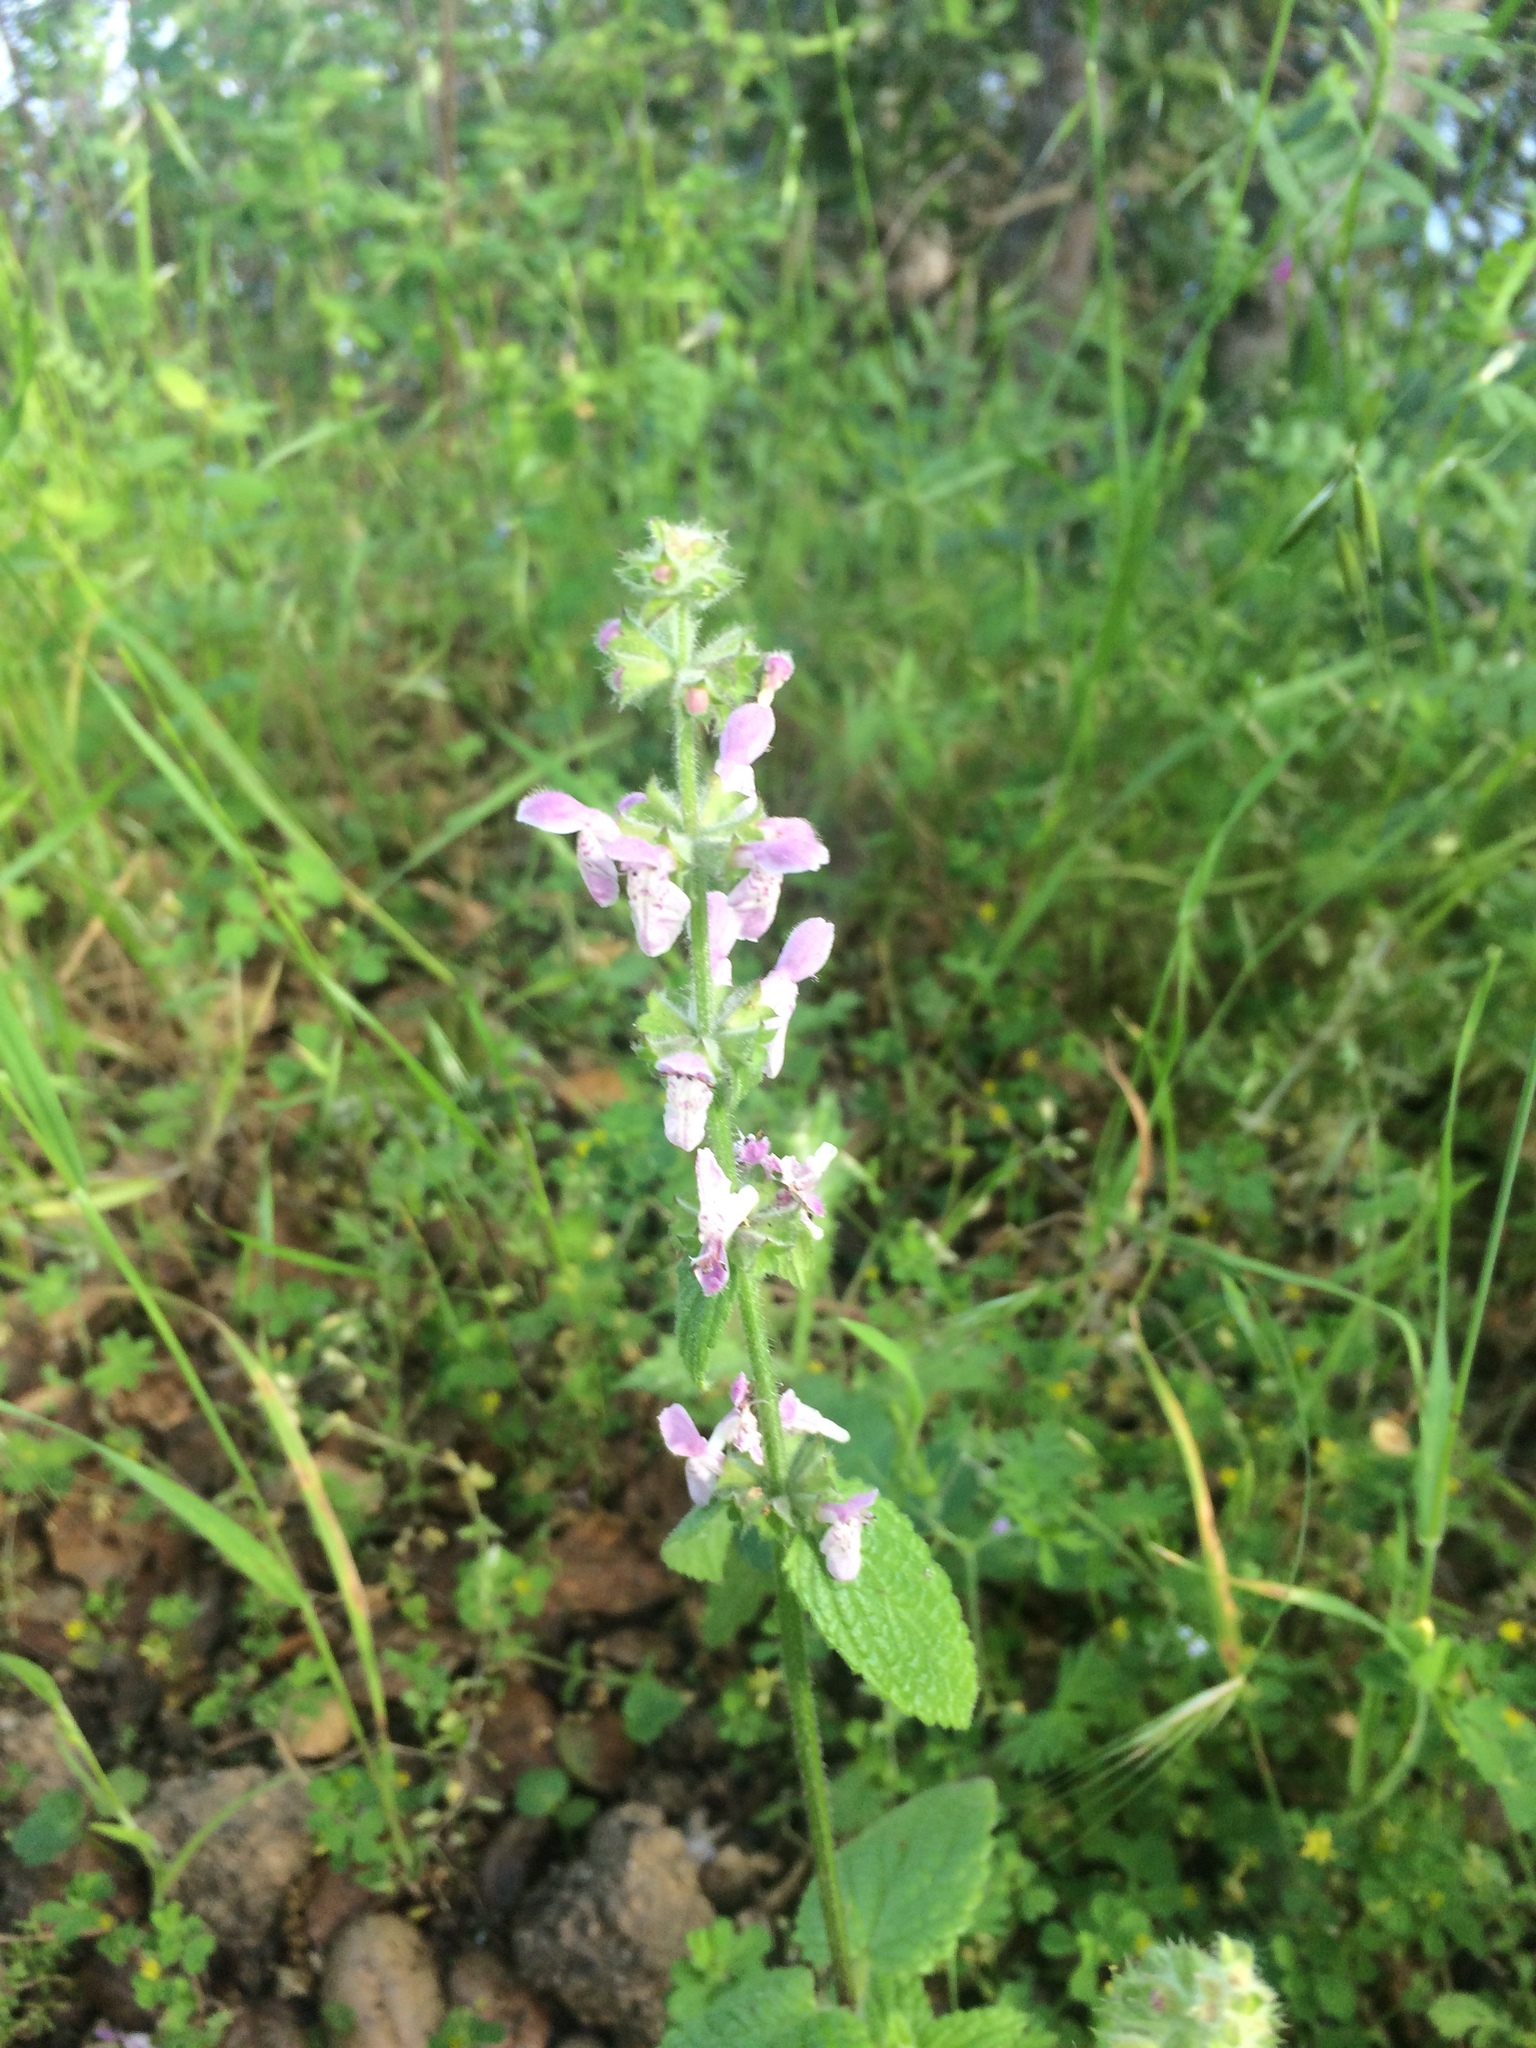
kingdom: Plantae
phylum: Tracheophyta
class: Magnoliopsida
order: Lamiales
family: Lamiaceae
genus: Stachys
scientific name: Stachys bullata
